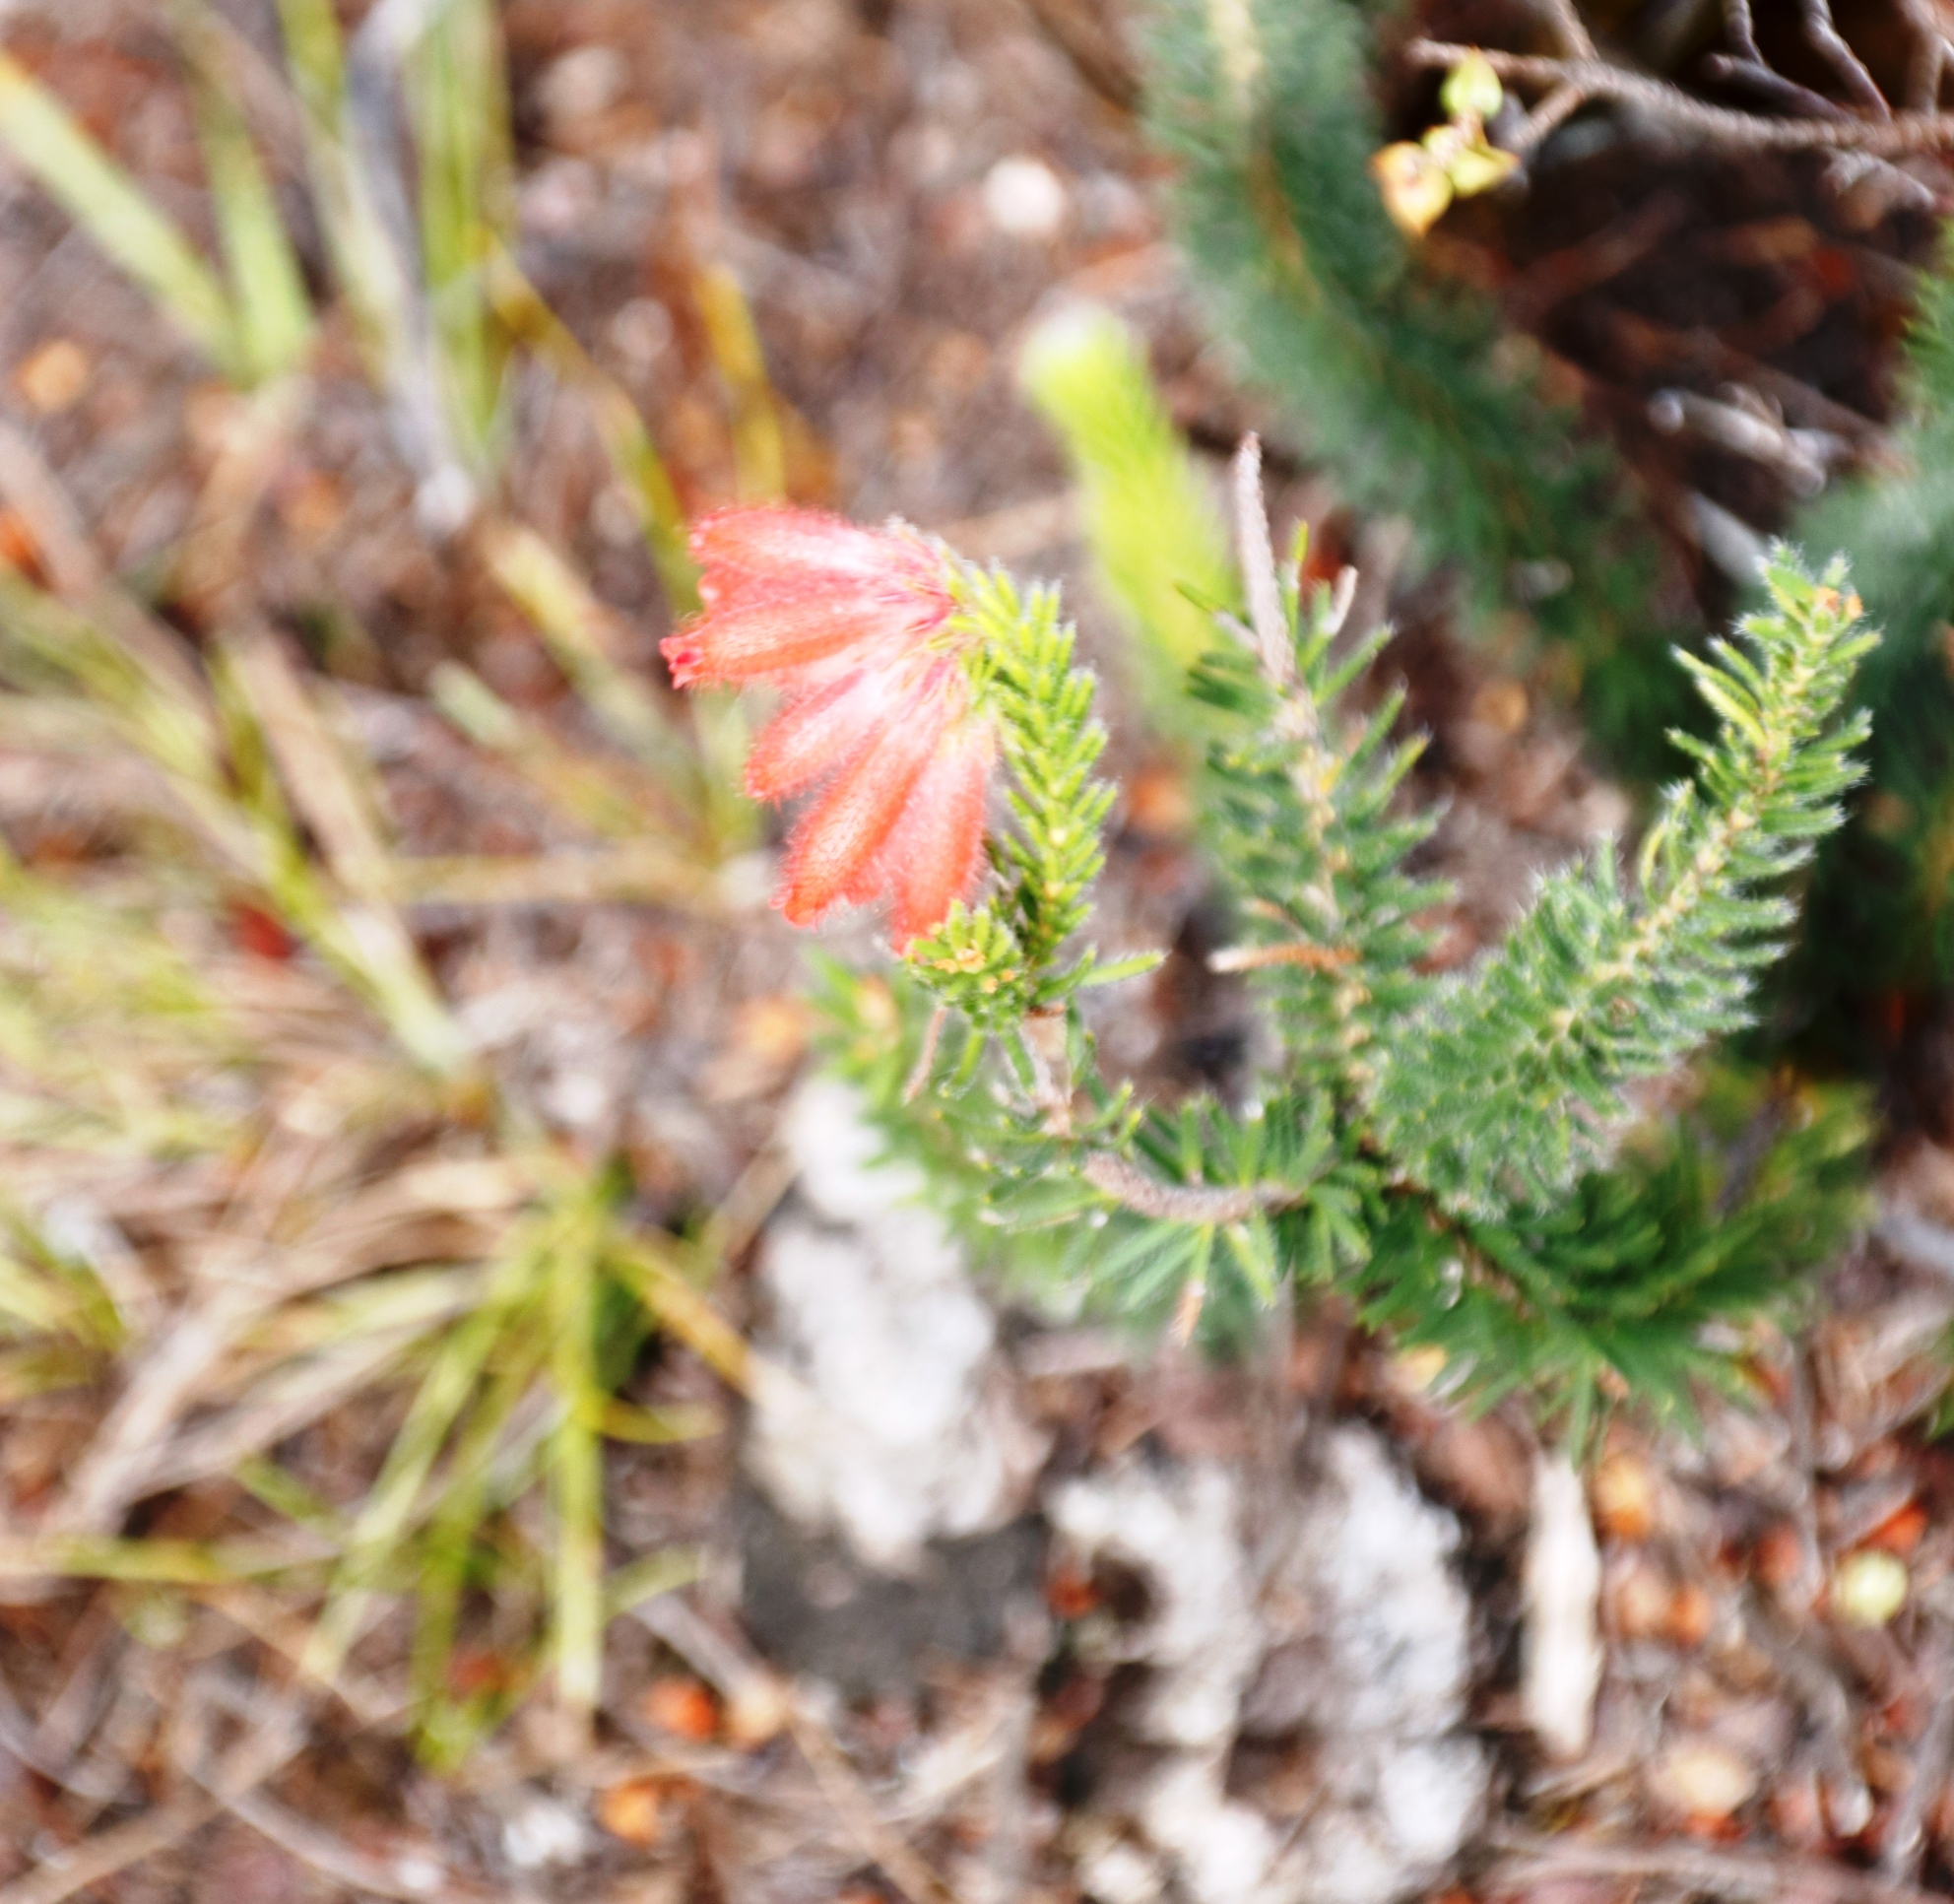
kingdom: Plantae
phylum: Tracheophyta
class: Magnoliopsida
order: Ericales
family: Ericaceae
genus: Erica
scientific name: Erica cerinthoides
